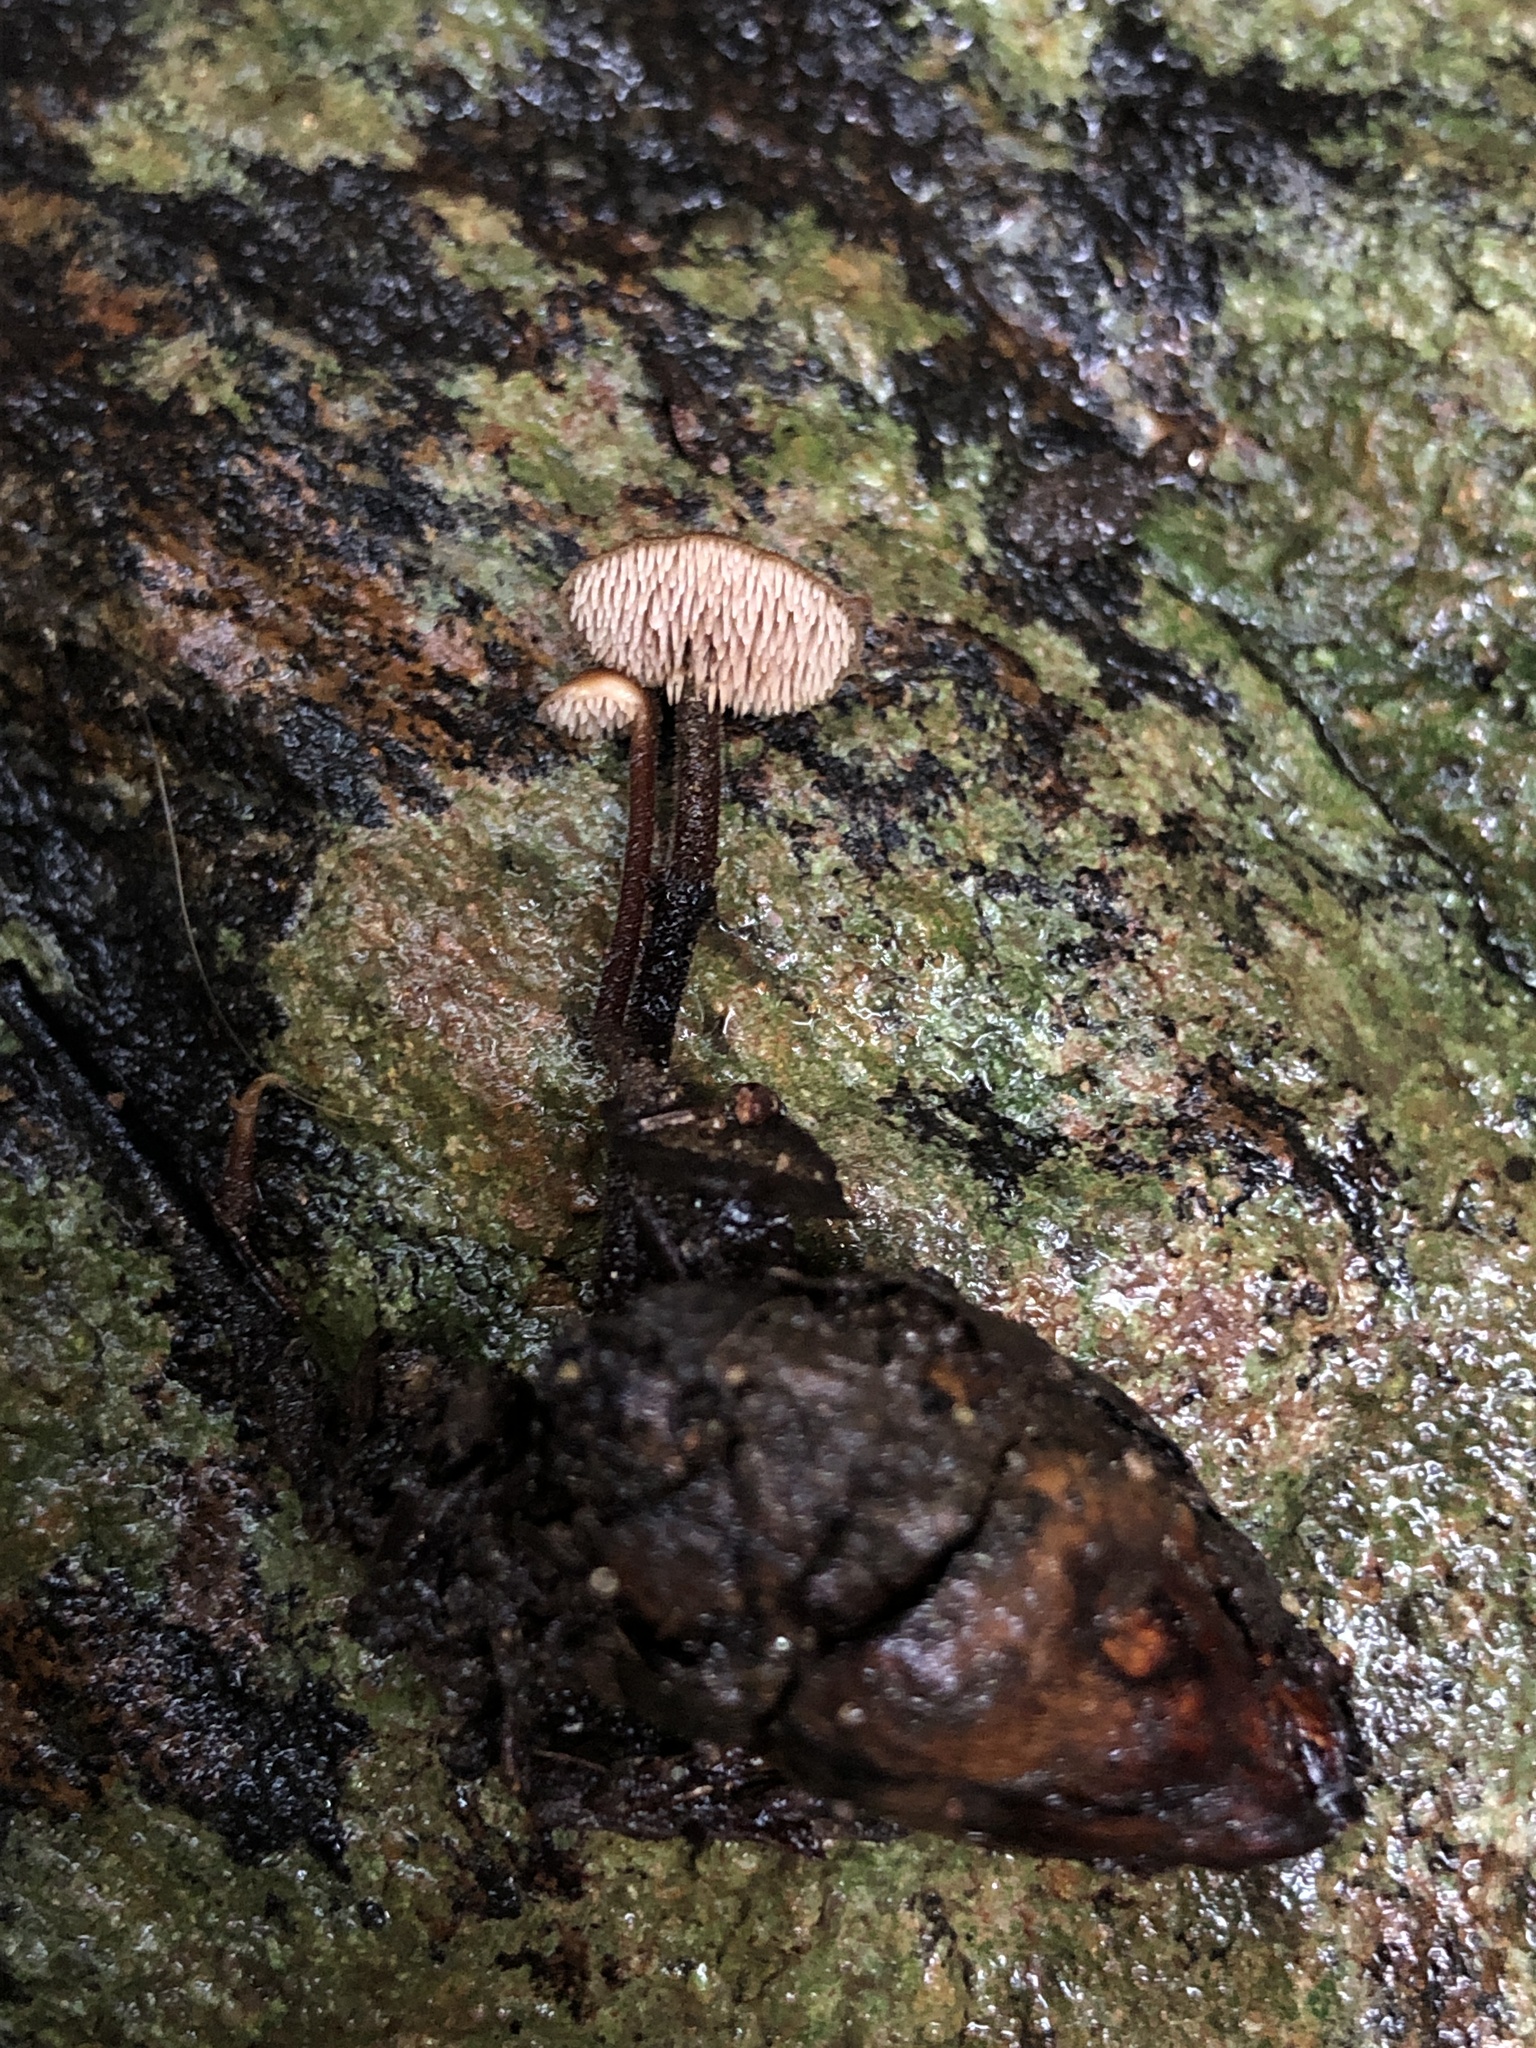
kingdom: Fungi
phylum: Basidiomycota
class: Agaricomycetes
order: Russulales
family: Auriscalpiaceae
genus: Auriscalpium
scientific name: Auriscalpium vulgare
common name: Earpick fungus
